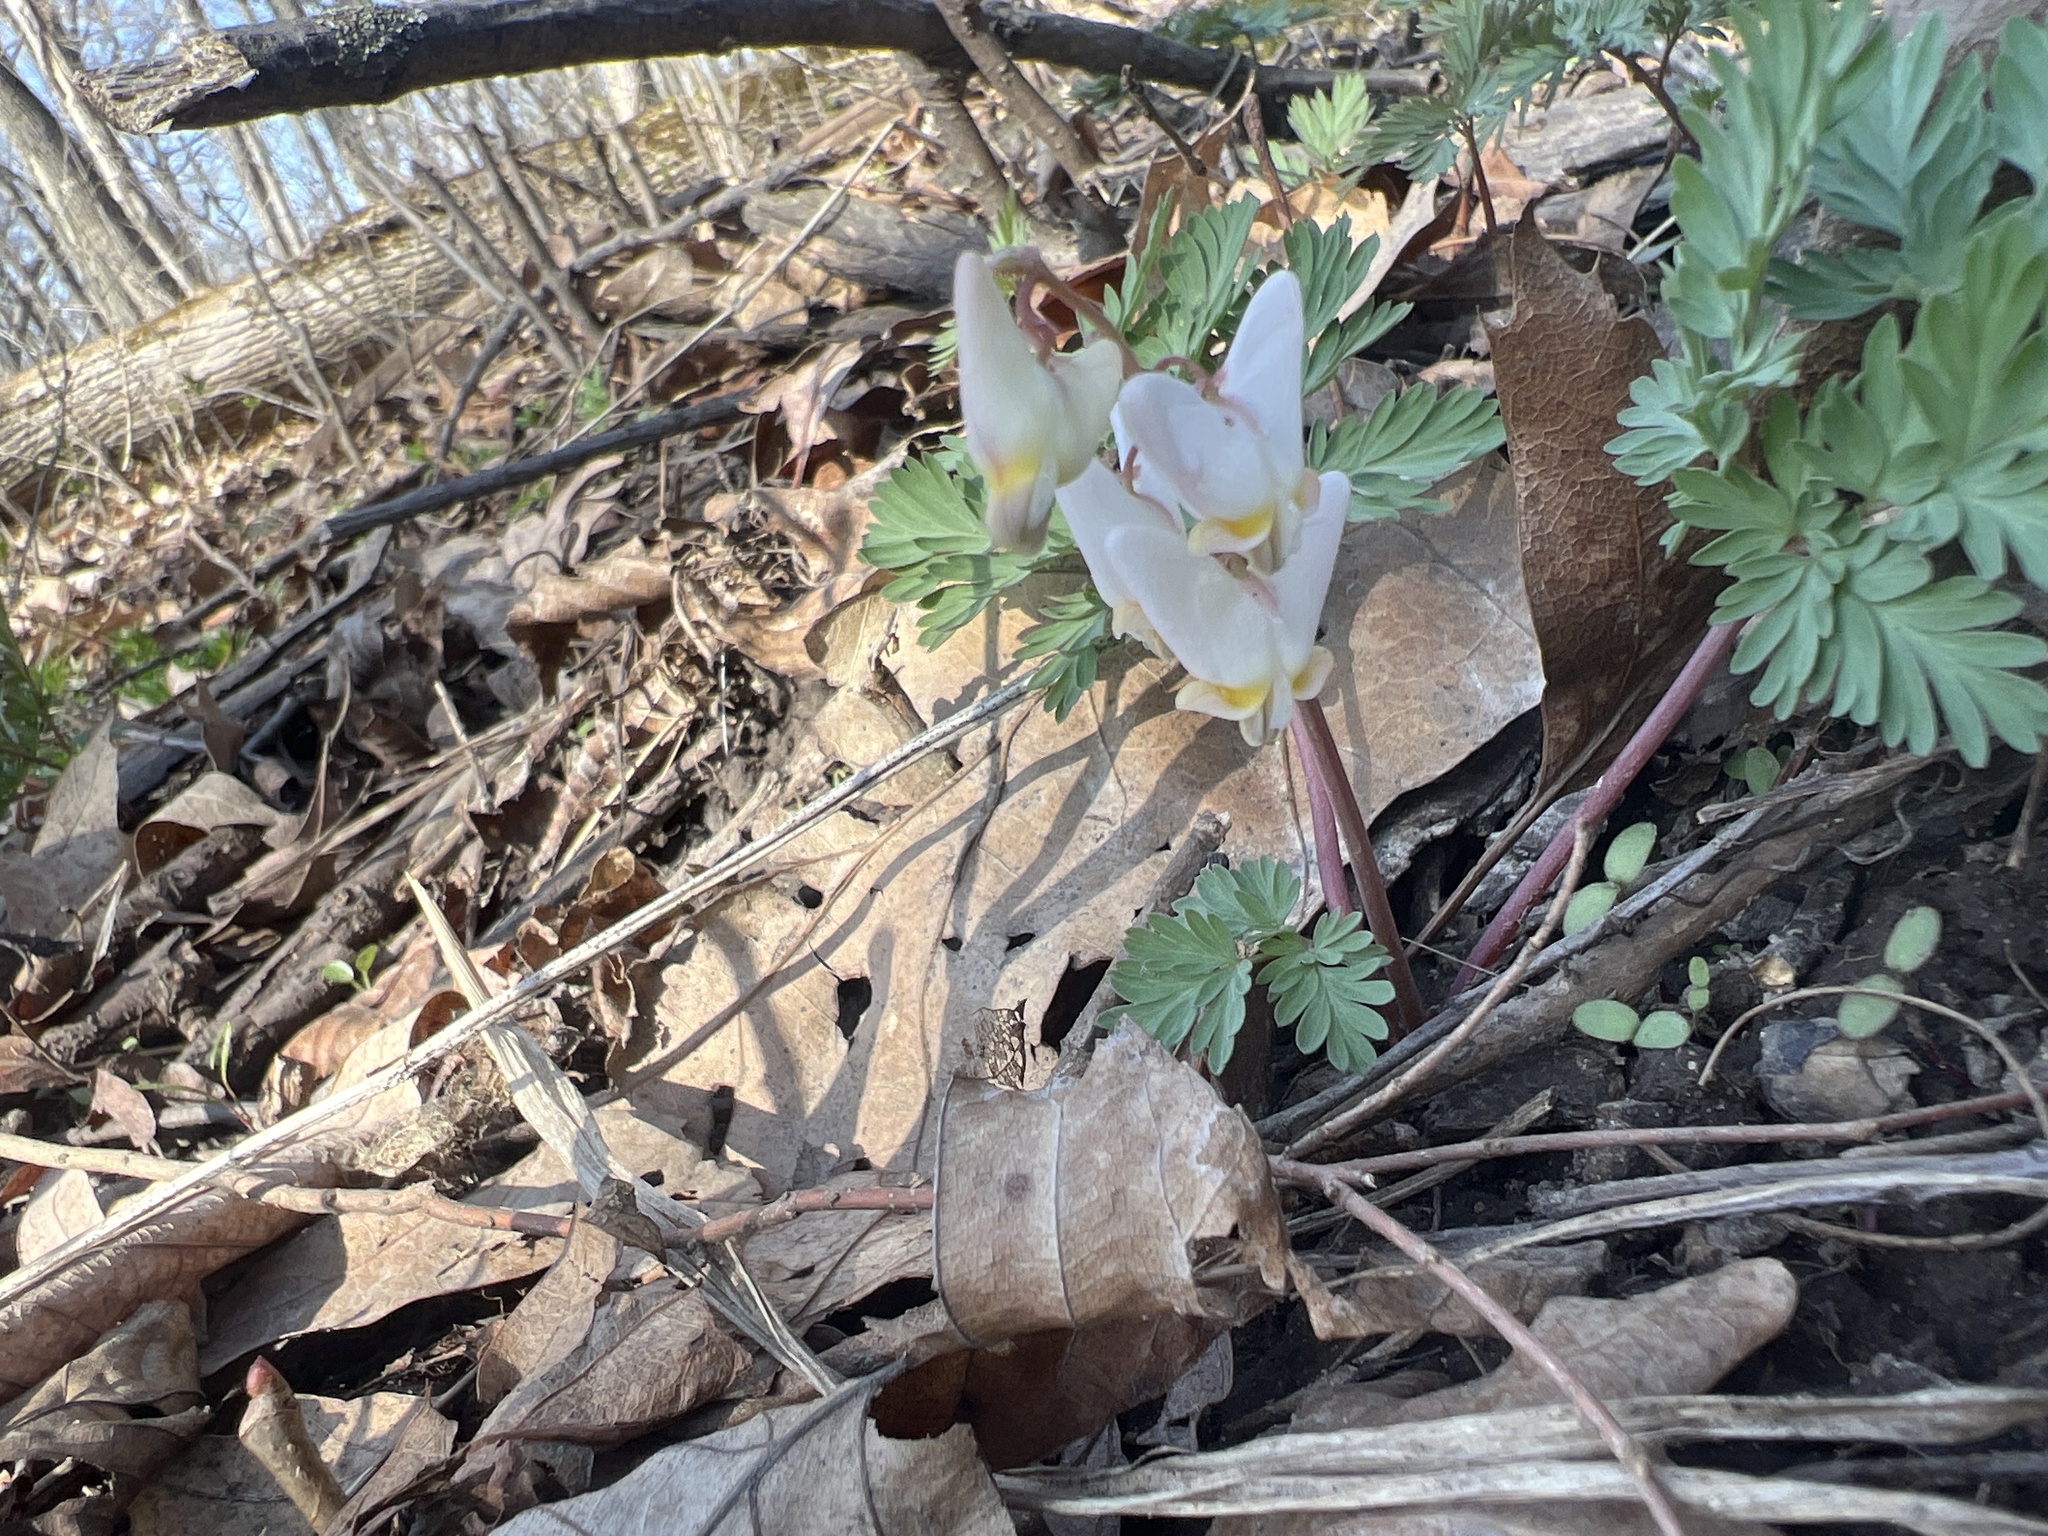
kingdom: Plantae
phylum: Tracheophyta
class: Magnoliopsida
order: Ranunculales
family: Papaveraceae
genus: Dicentra
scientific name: Dicentra cucullaria
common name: Dutchman's breeches
